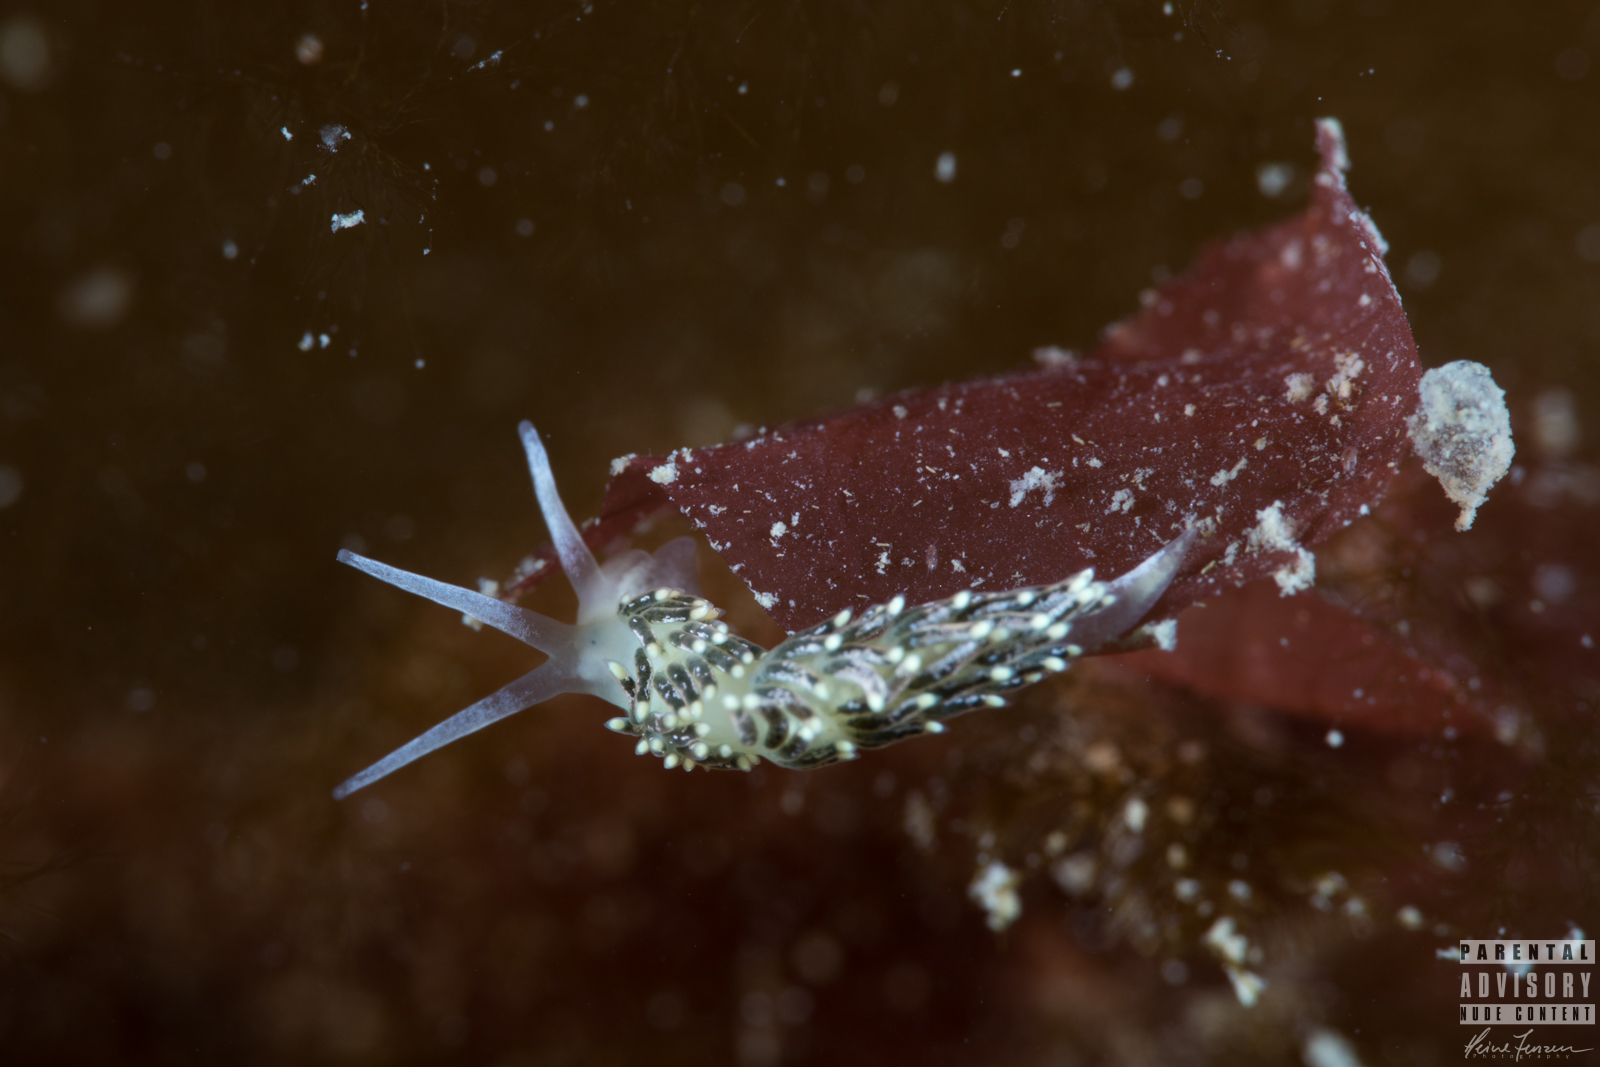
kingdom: Animalia
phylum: Mollusca
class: Gastropoda
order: Nudibranchia
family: Trinchesiidae
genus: Diaphoreolis
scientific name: Diaphoreolis viridis
